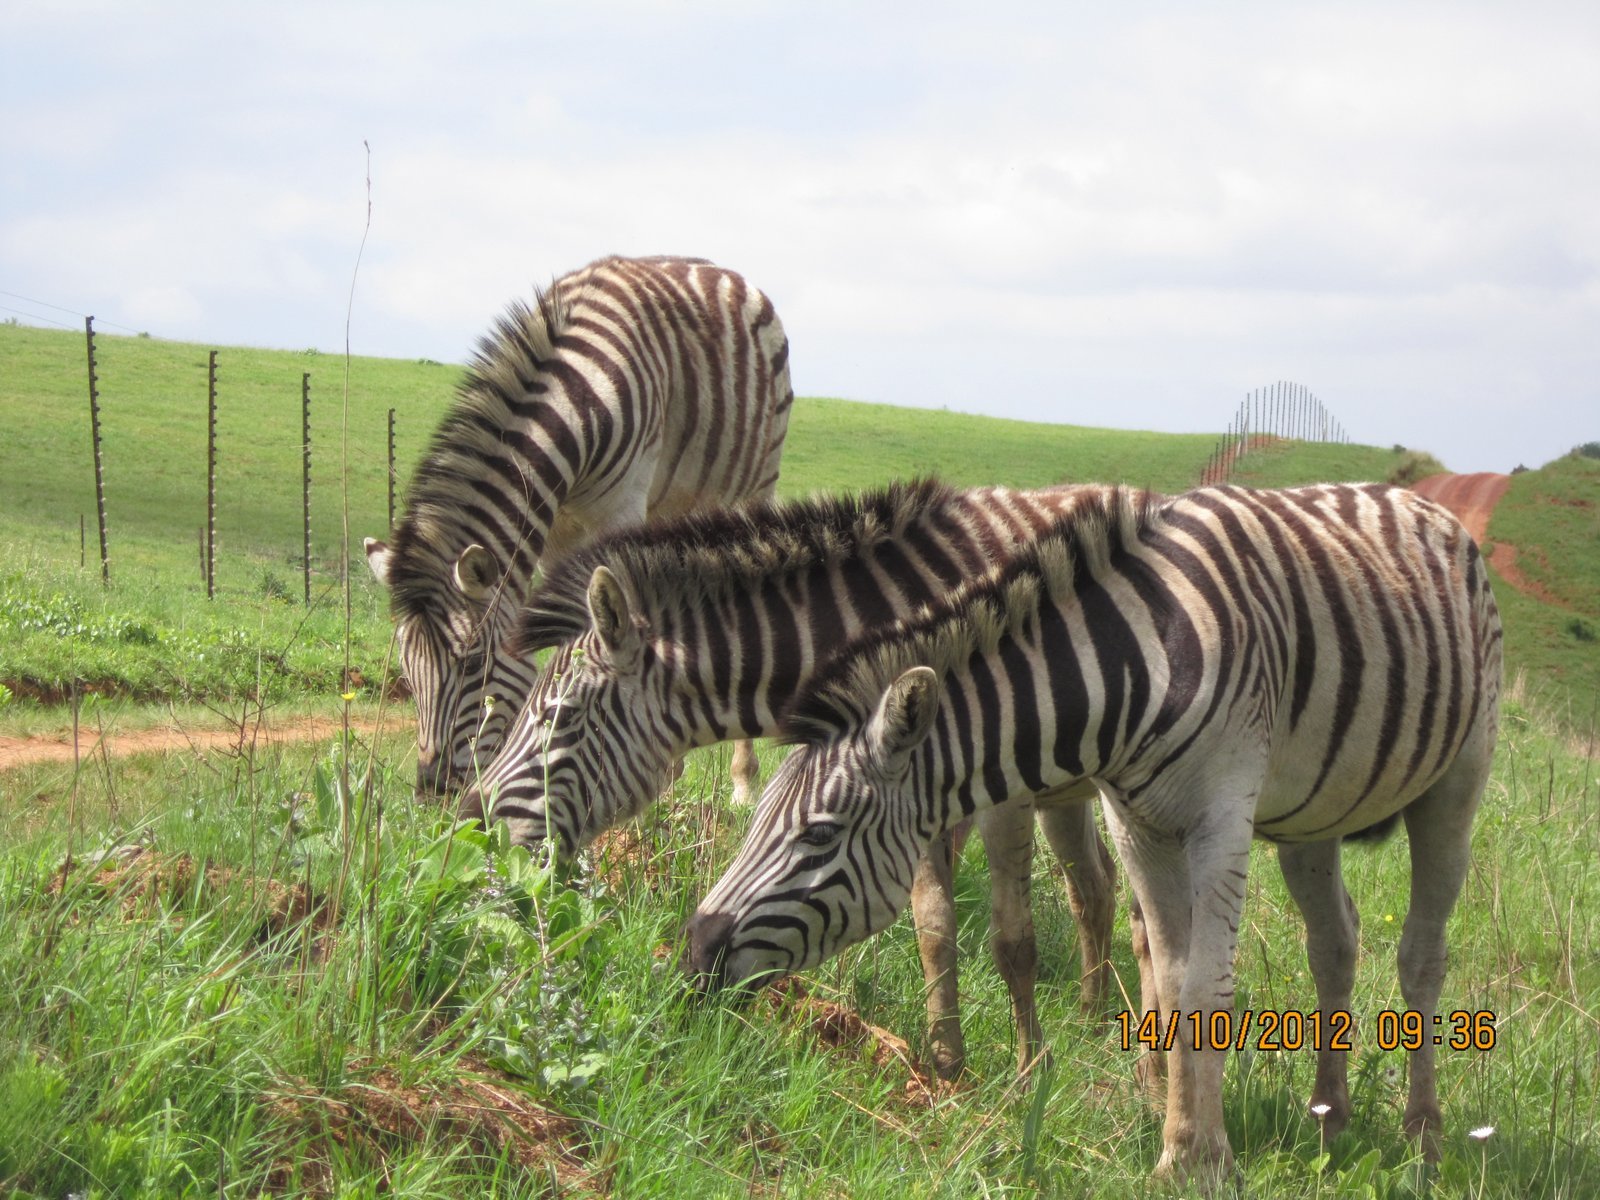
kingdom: Animalia
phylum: Chordata
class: Mammalia
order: Perissodactyla
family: Equidae
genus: Equus
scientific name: Equus quagga
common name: Plains zebra
